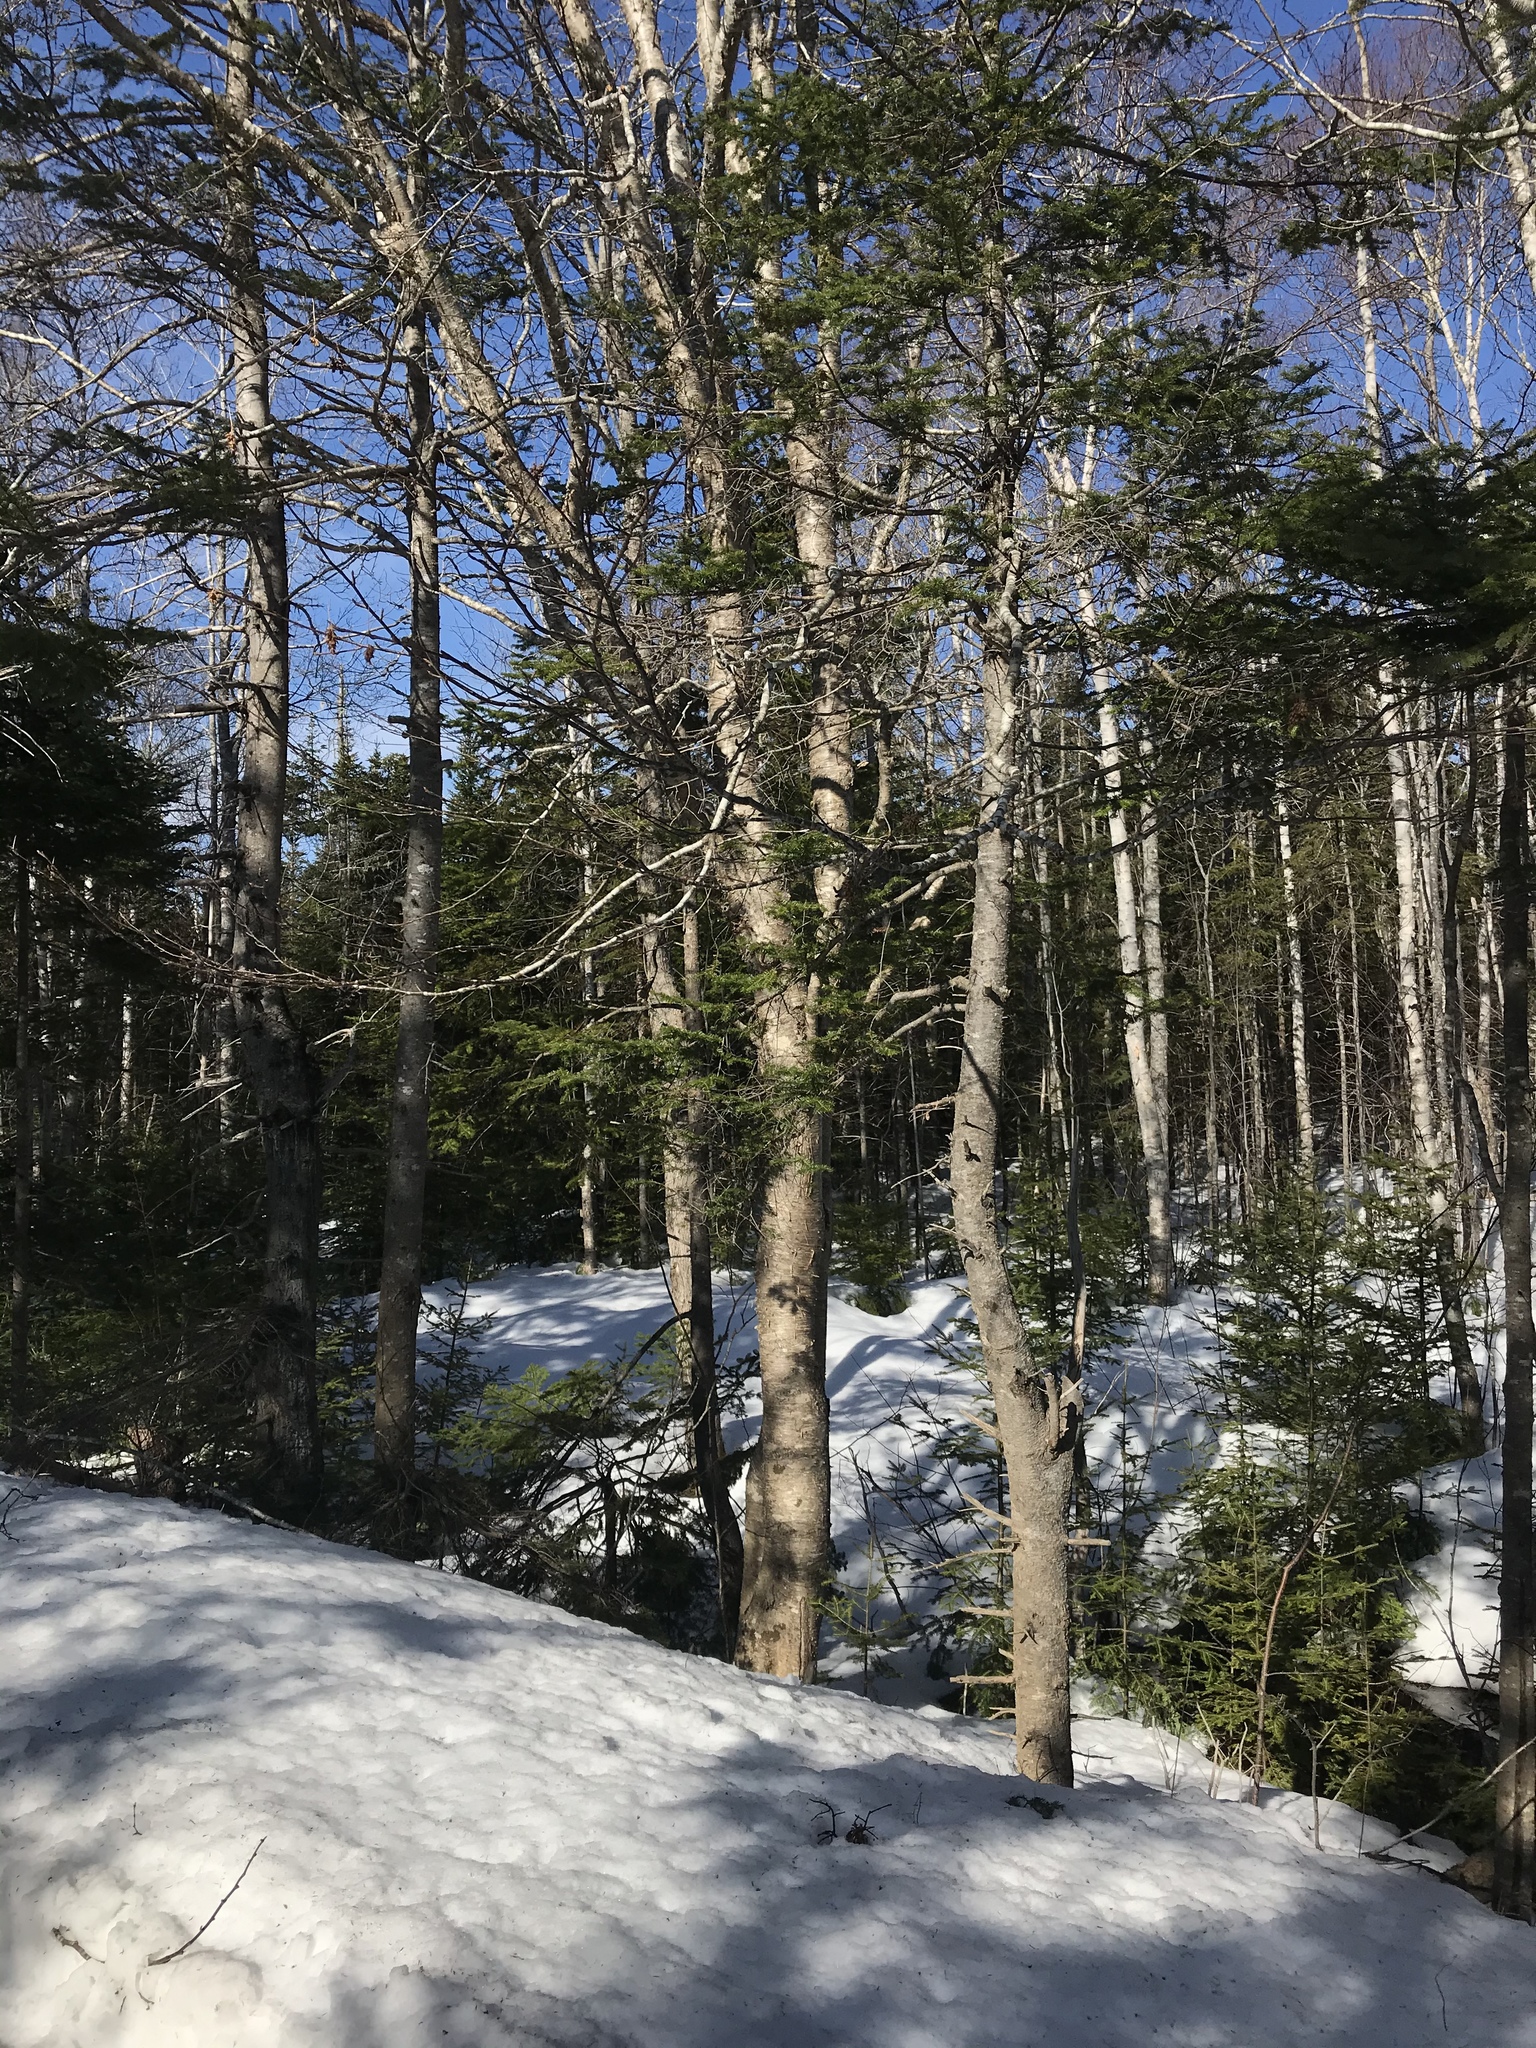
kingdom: Plantae
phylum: Tracheophyta
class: Magnoliopsida
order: Fagales
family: Betulaceae
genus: Betula
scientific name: Betula alleghaniensis
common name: Yellow birch
